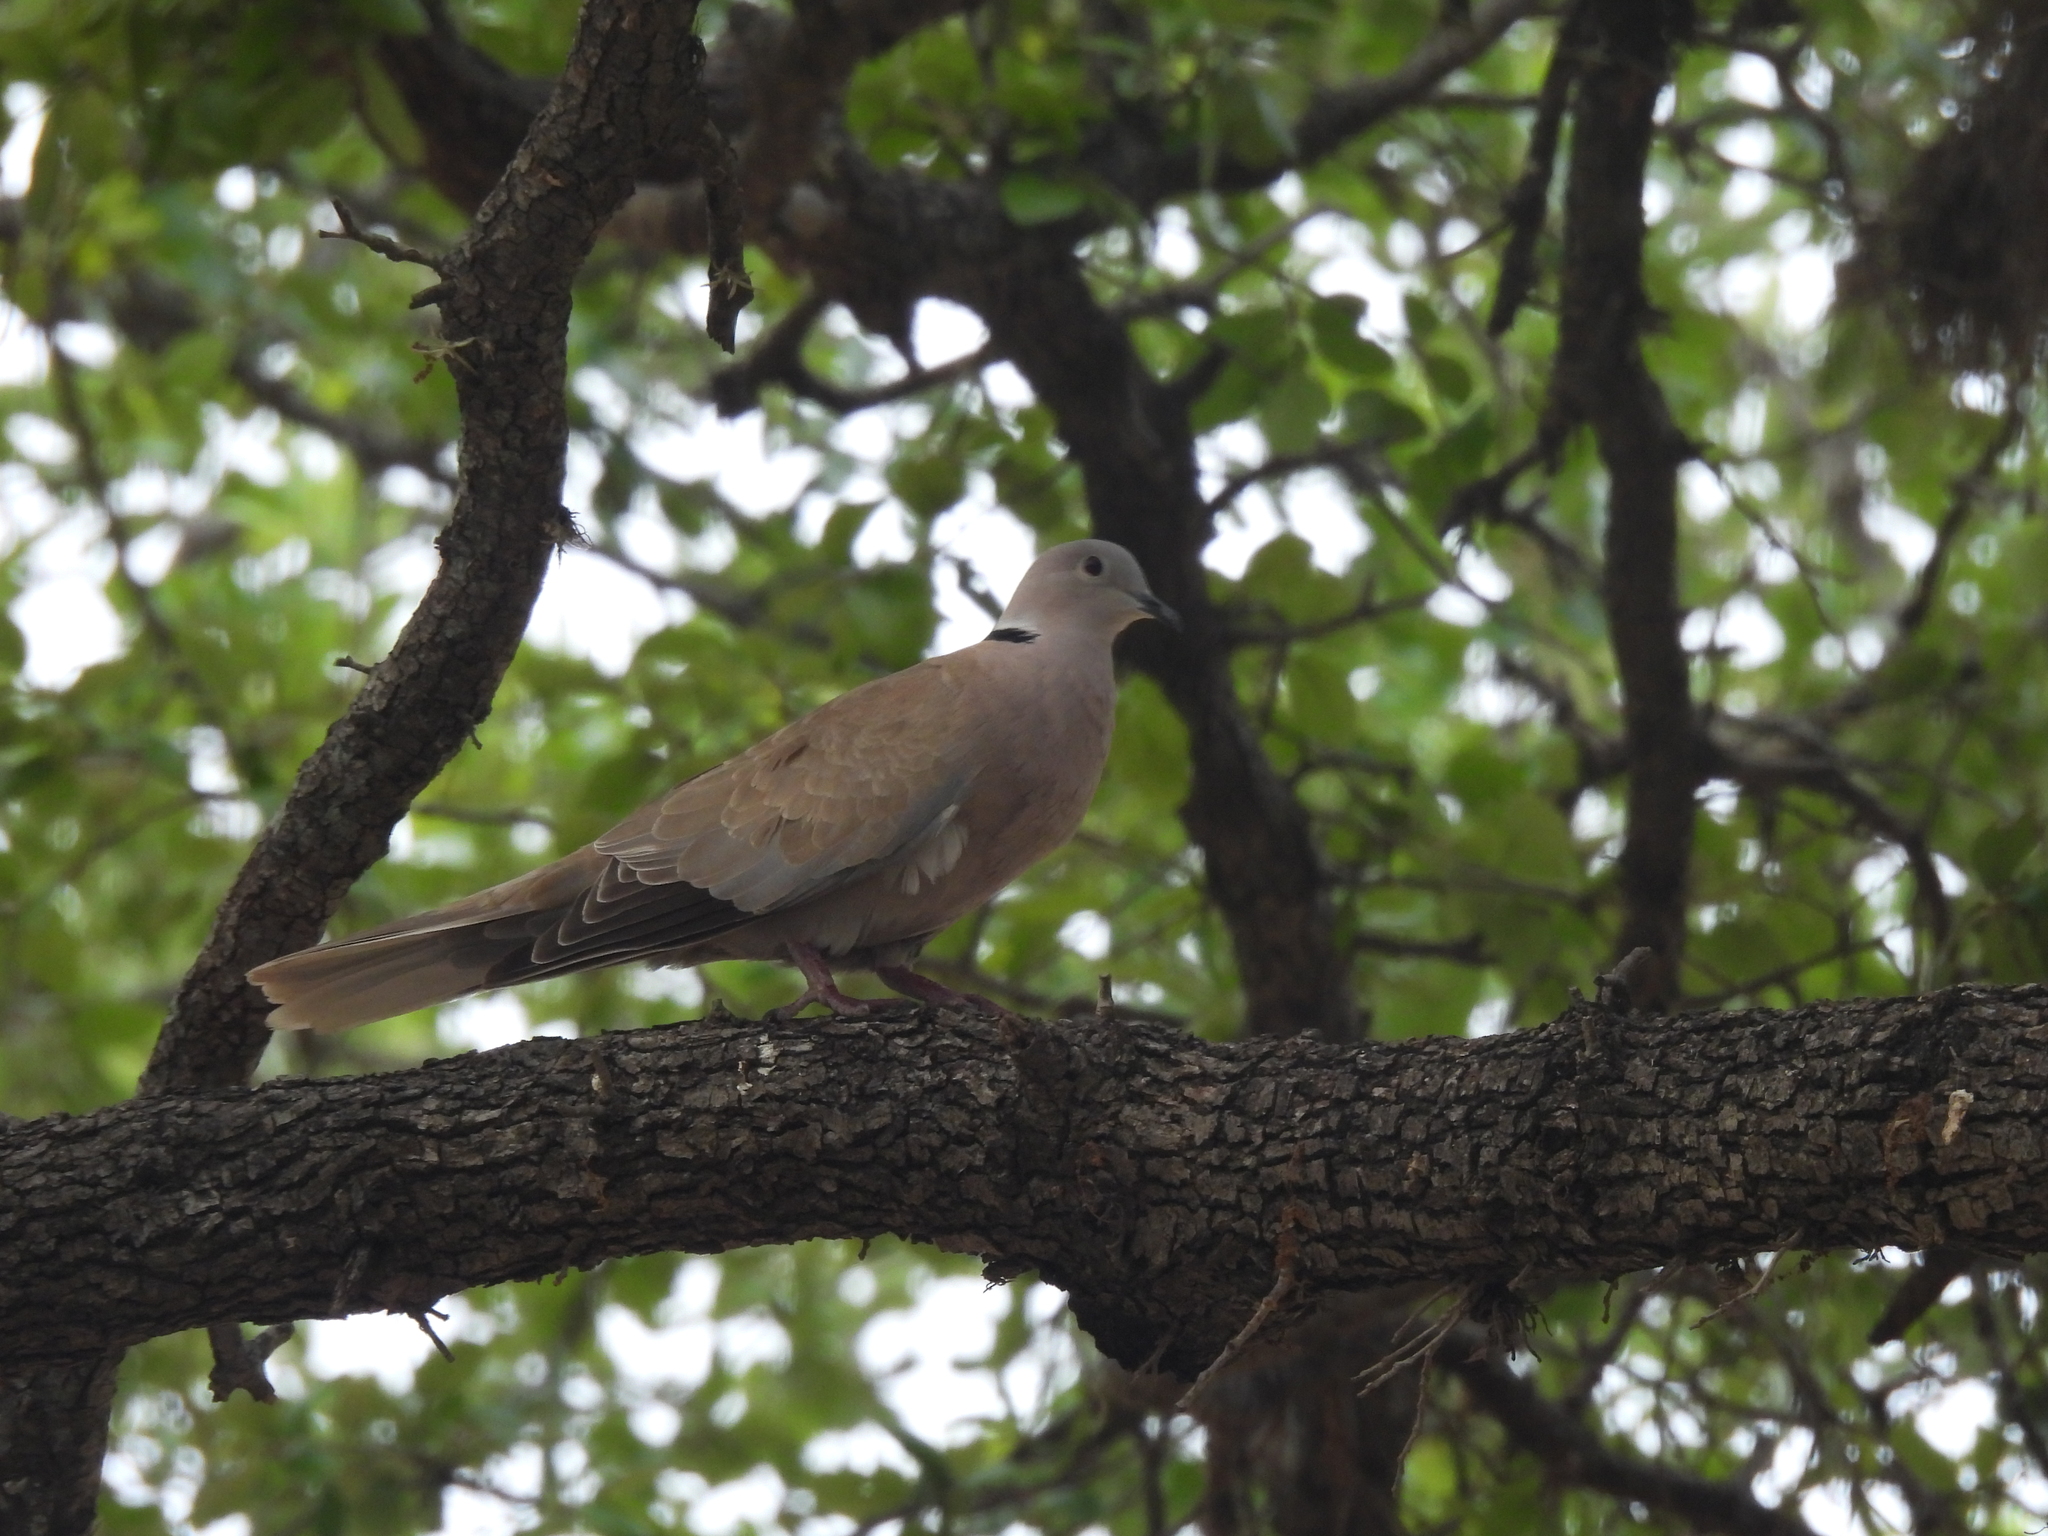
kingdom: Animalia
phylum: Chordata
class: Aves
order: Columbiformes
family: Columbidae
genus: Streptopelia
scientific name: Streptopelia decaocto
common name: Eurasian collared dove
